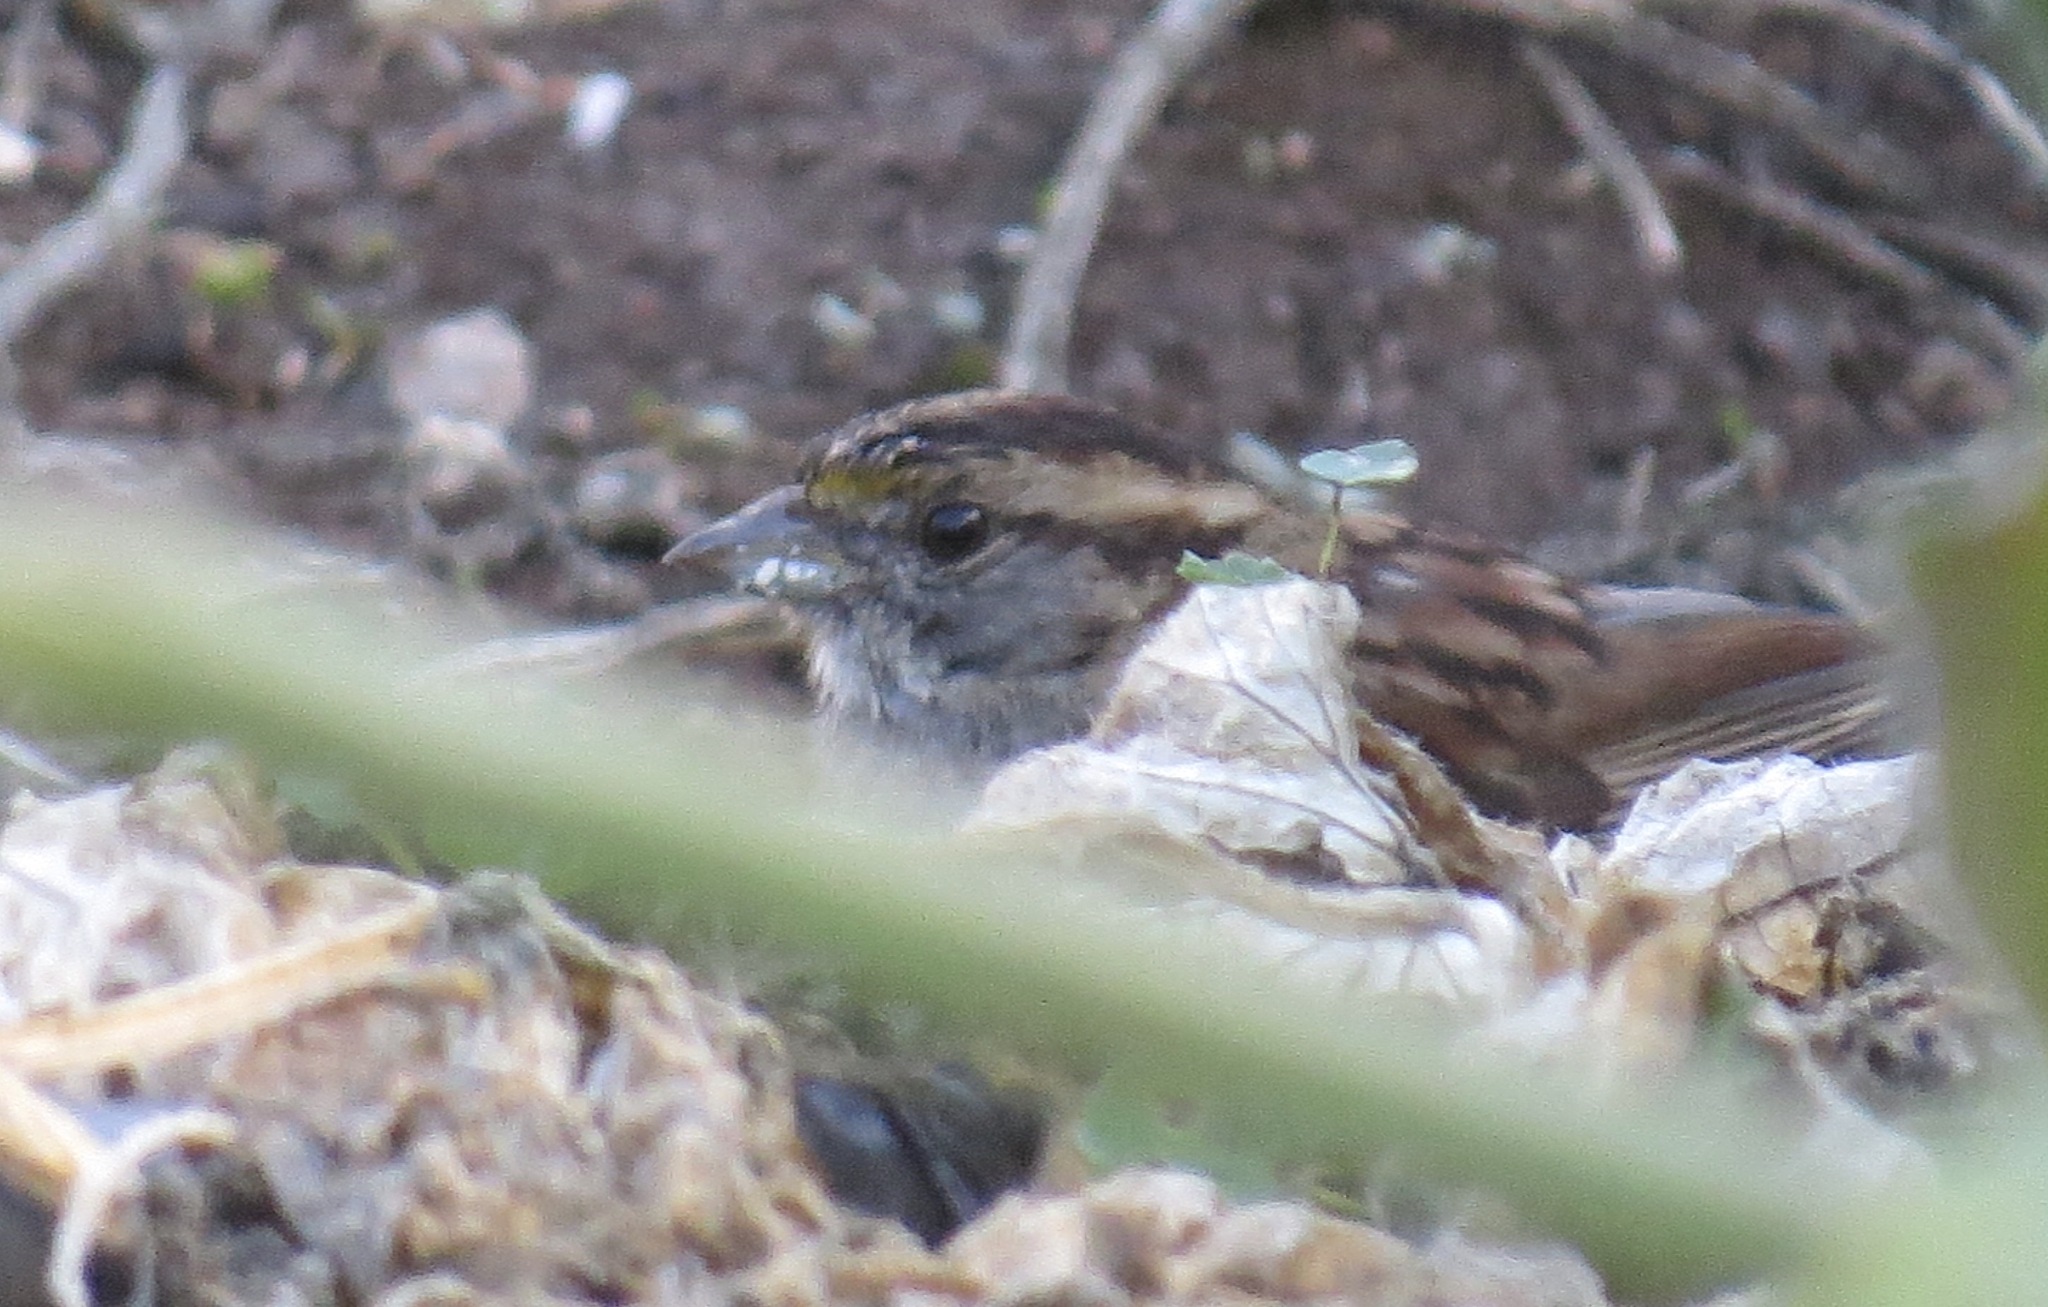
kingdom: Animalia
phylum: Chordata
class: Aves
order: Passeriformes
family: Passerellidae
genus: Zonotrichia
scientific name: Zonotrichia albicollis
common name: White-throated sparrow
